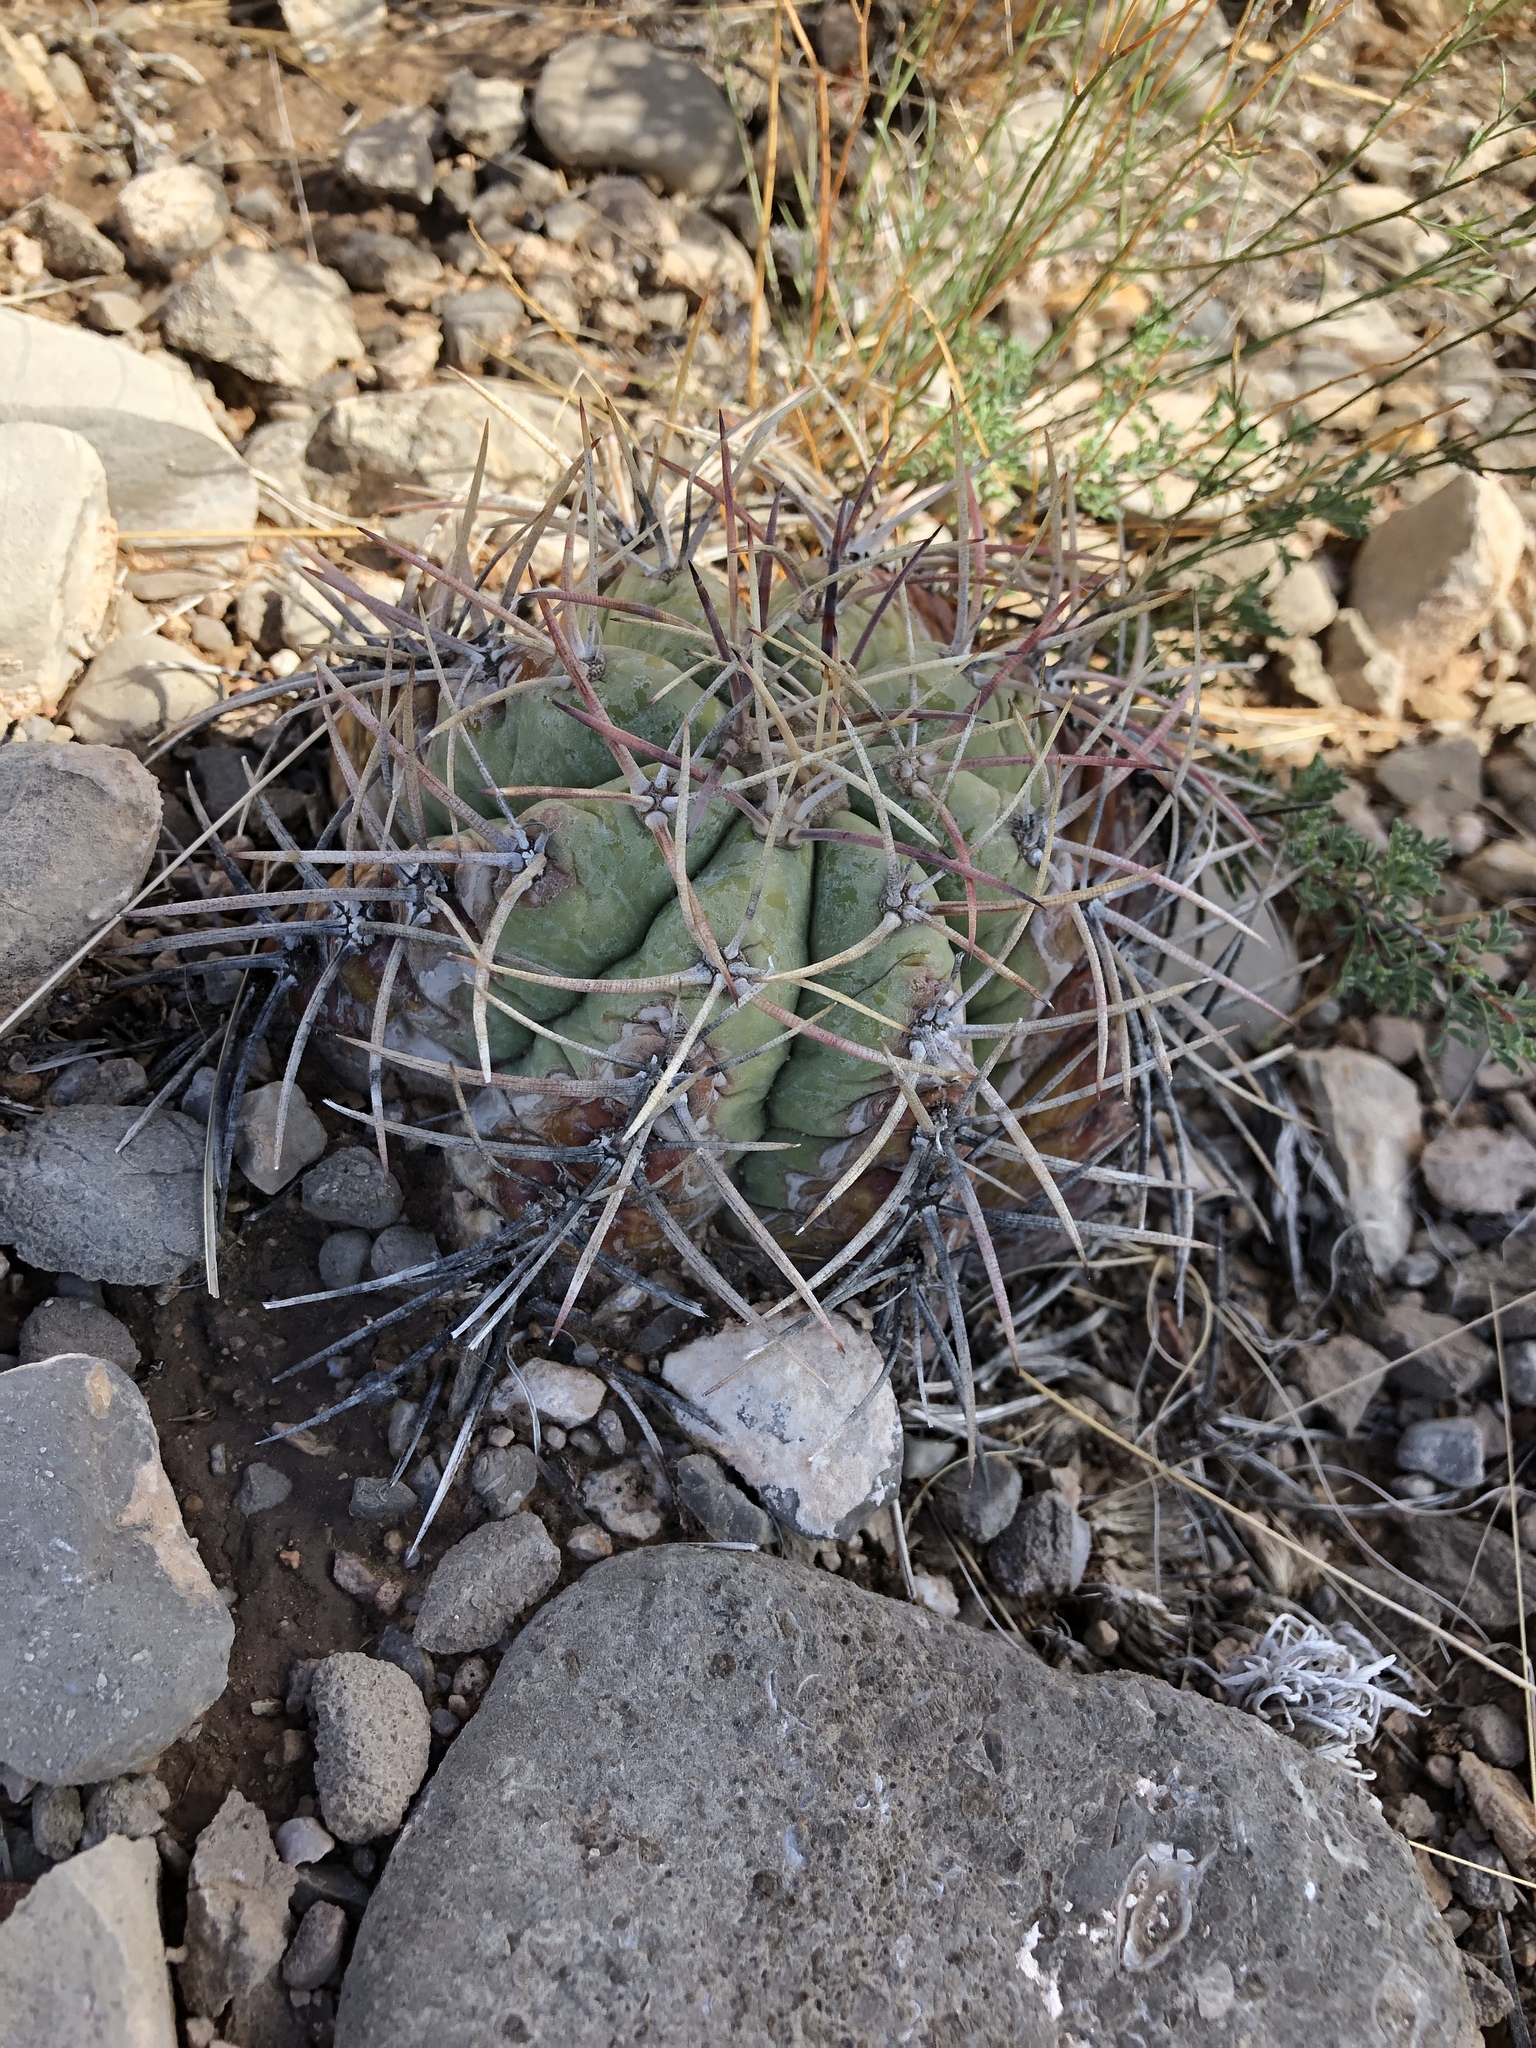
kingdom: Plantae
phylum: Tracheophyta
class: Magnoliopsida
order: Caryophyllales
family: Cactaceae
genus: Echinocactus
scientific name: Echinocactus horizonthalonius
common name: Devilshead
